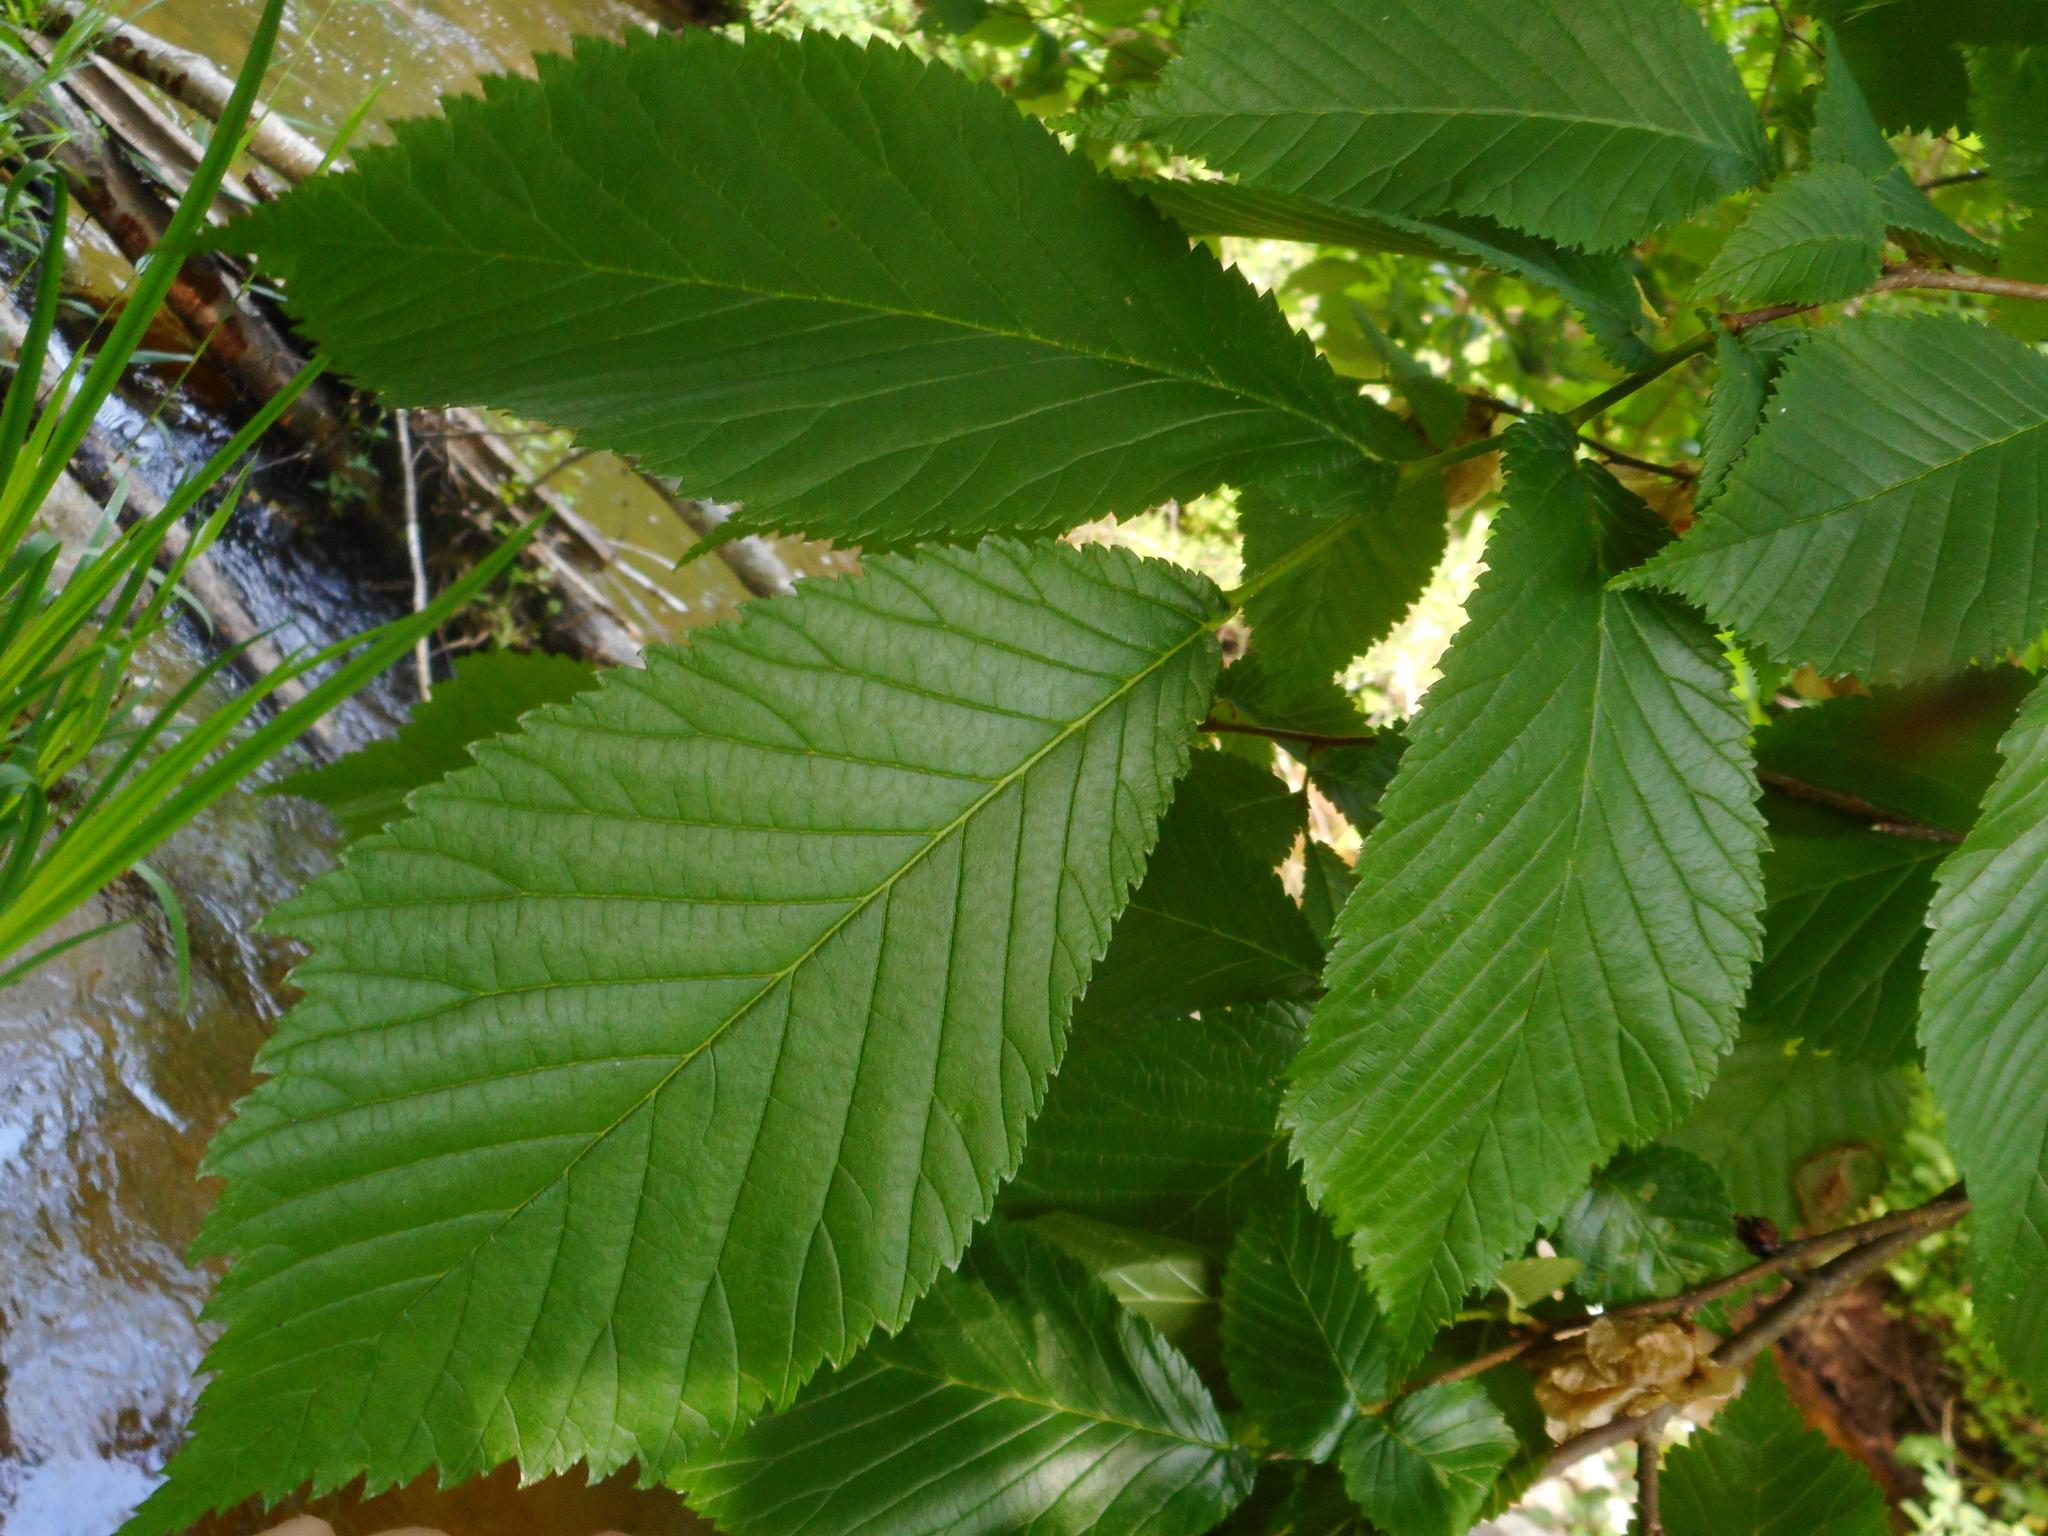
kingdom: Plantae
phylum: Tracheophyta
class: Magnoliopsida
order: Rosales
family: Ulmaceae
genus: Ulmus
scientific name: Ulmus glabra
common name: Wych elm
